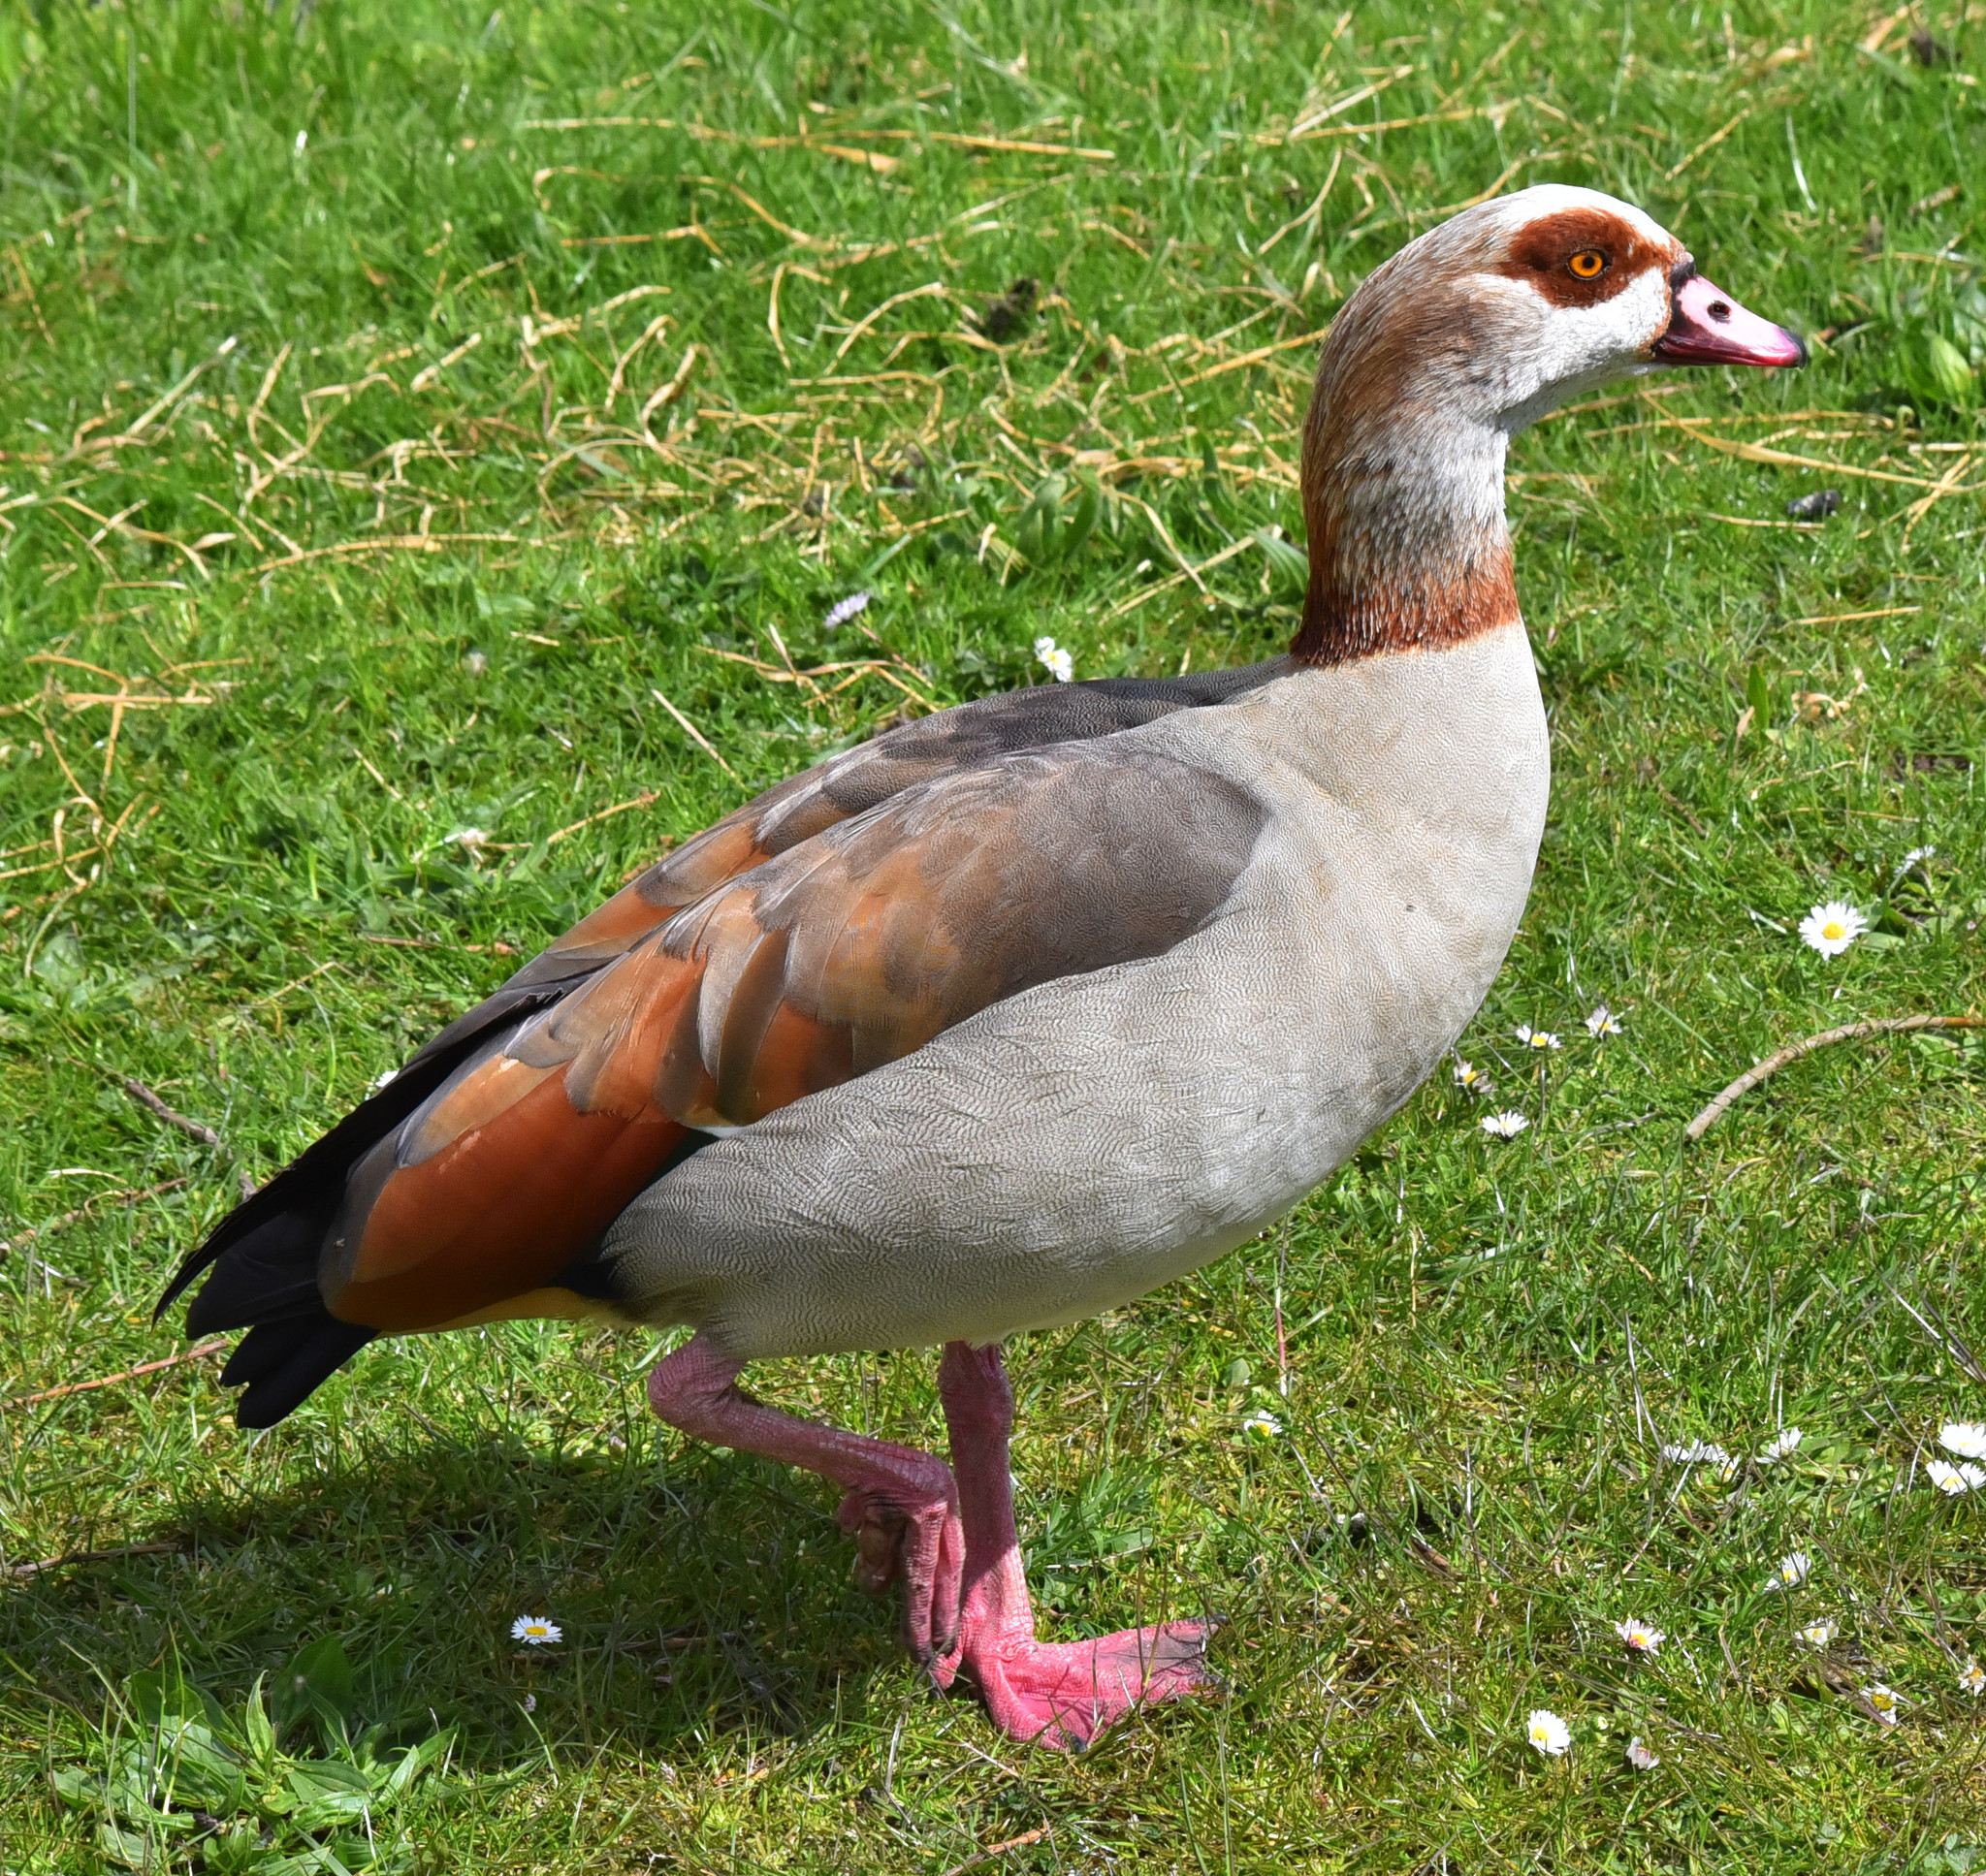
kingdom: Animalia
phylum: Chordata
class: Aves
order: Anseriformes
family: Anatidae
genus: Alopochen
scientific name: Alopochen aegyptiaca
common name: Egyptian goose
